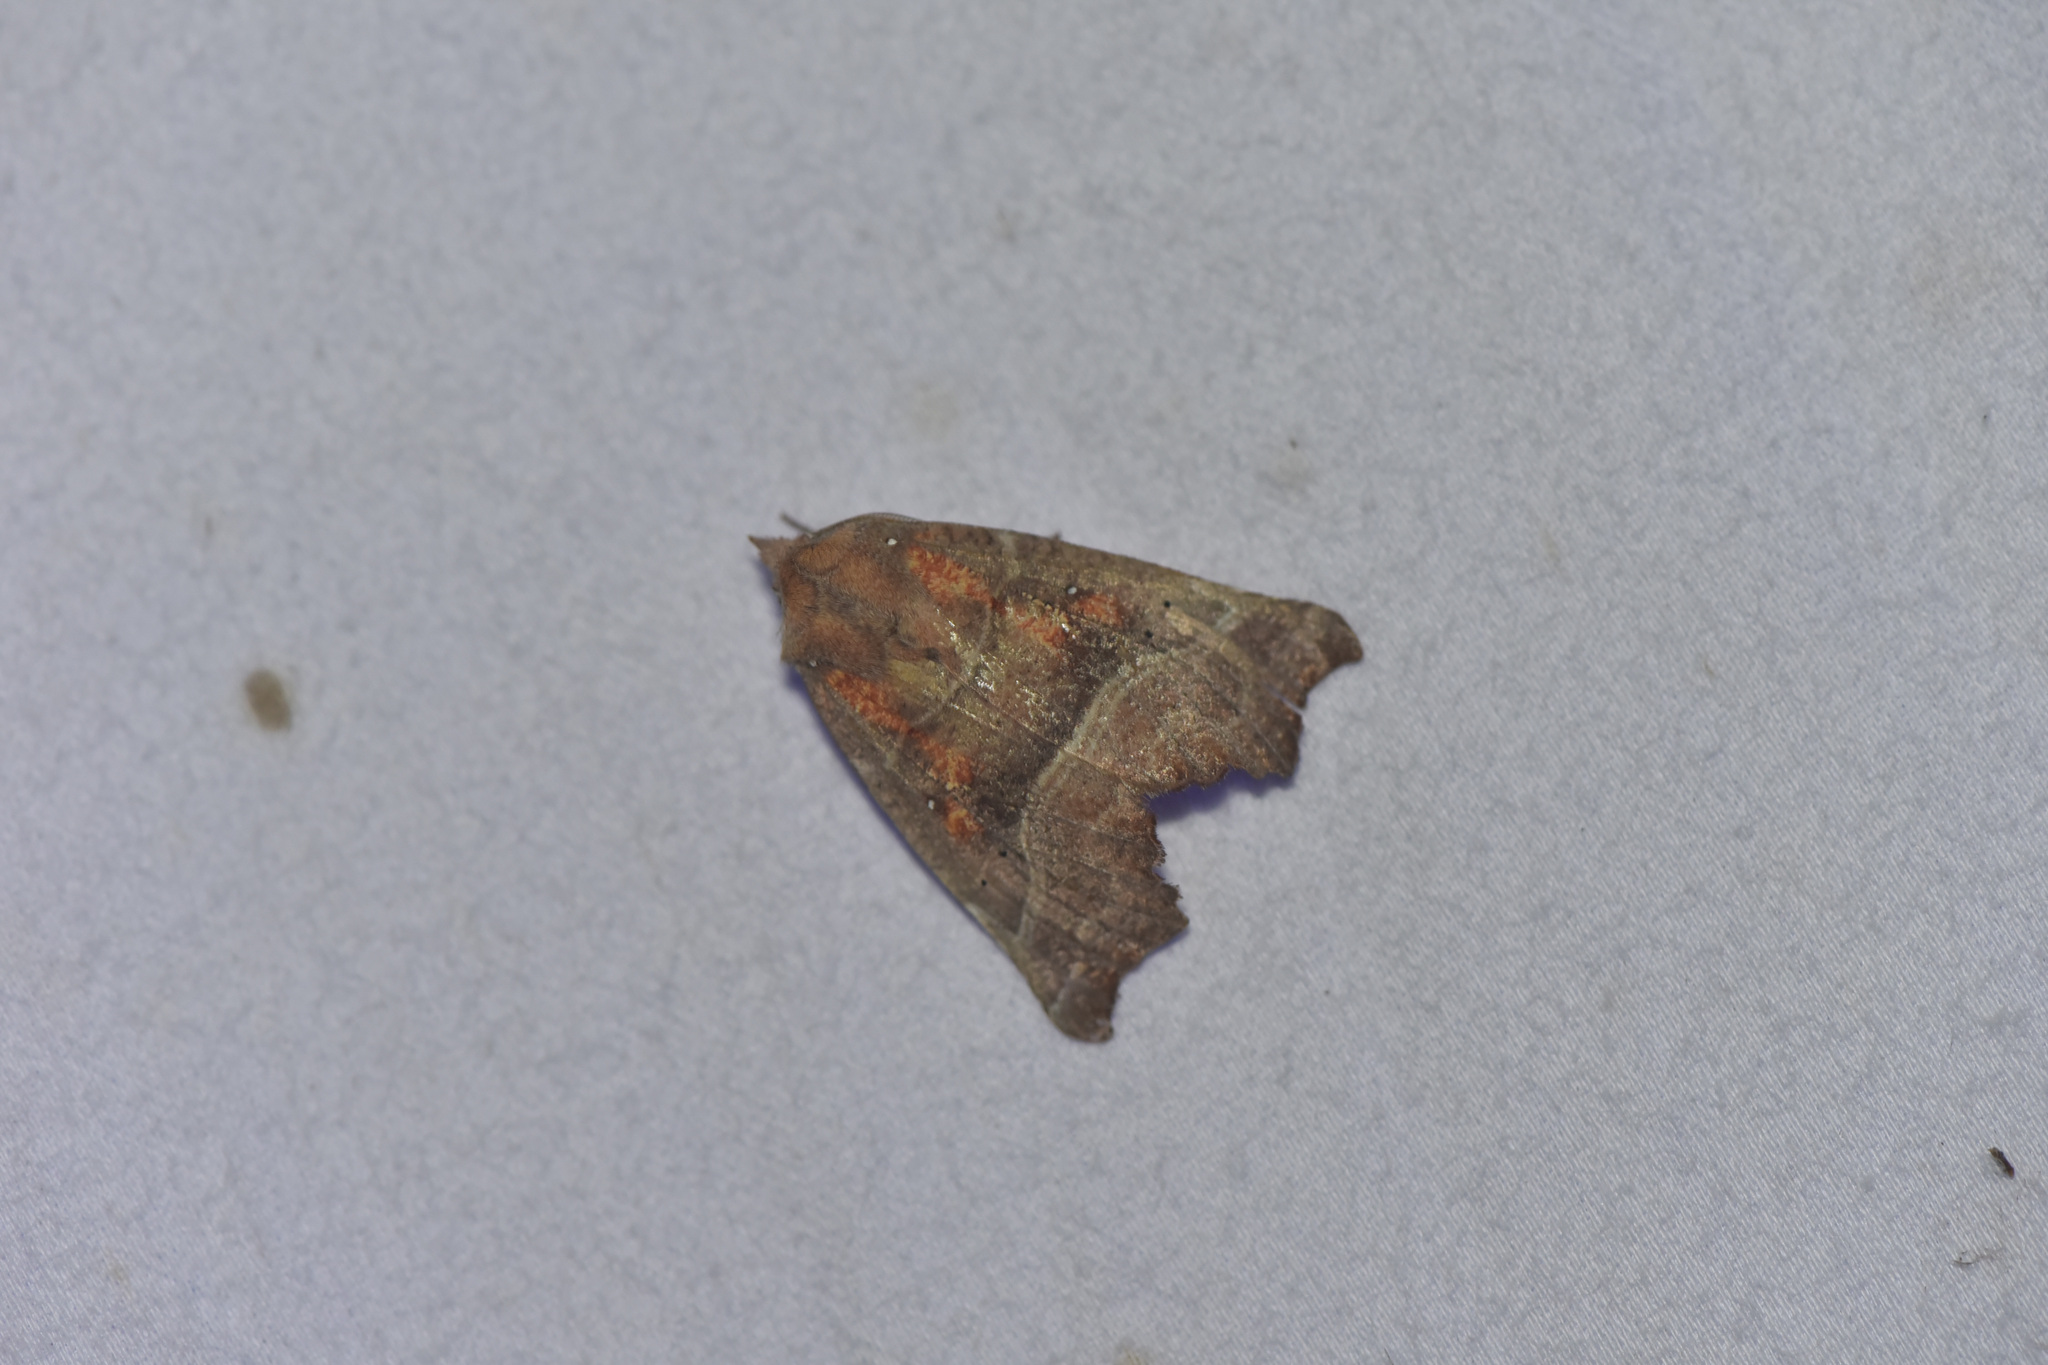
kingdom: Animalia
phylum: Arthropoda
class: Insecta
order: Lepidoptera
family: Erebidae
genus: Scoliopteryx
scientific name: Scoliopteryx libatrix
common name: Herald
